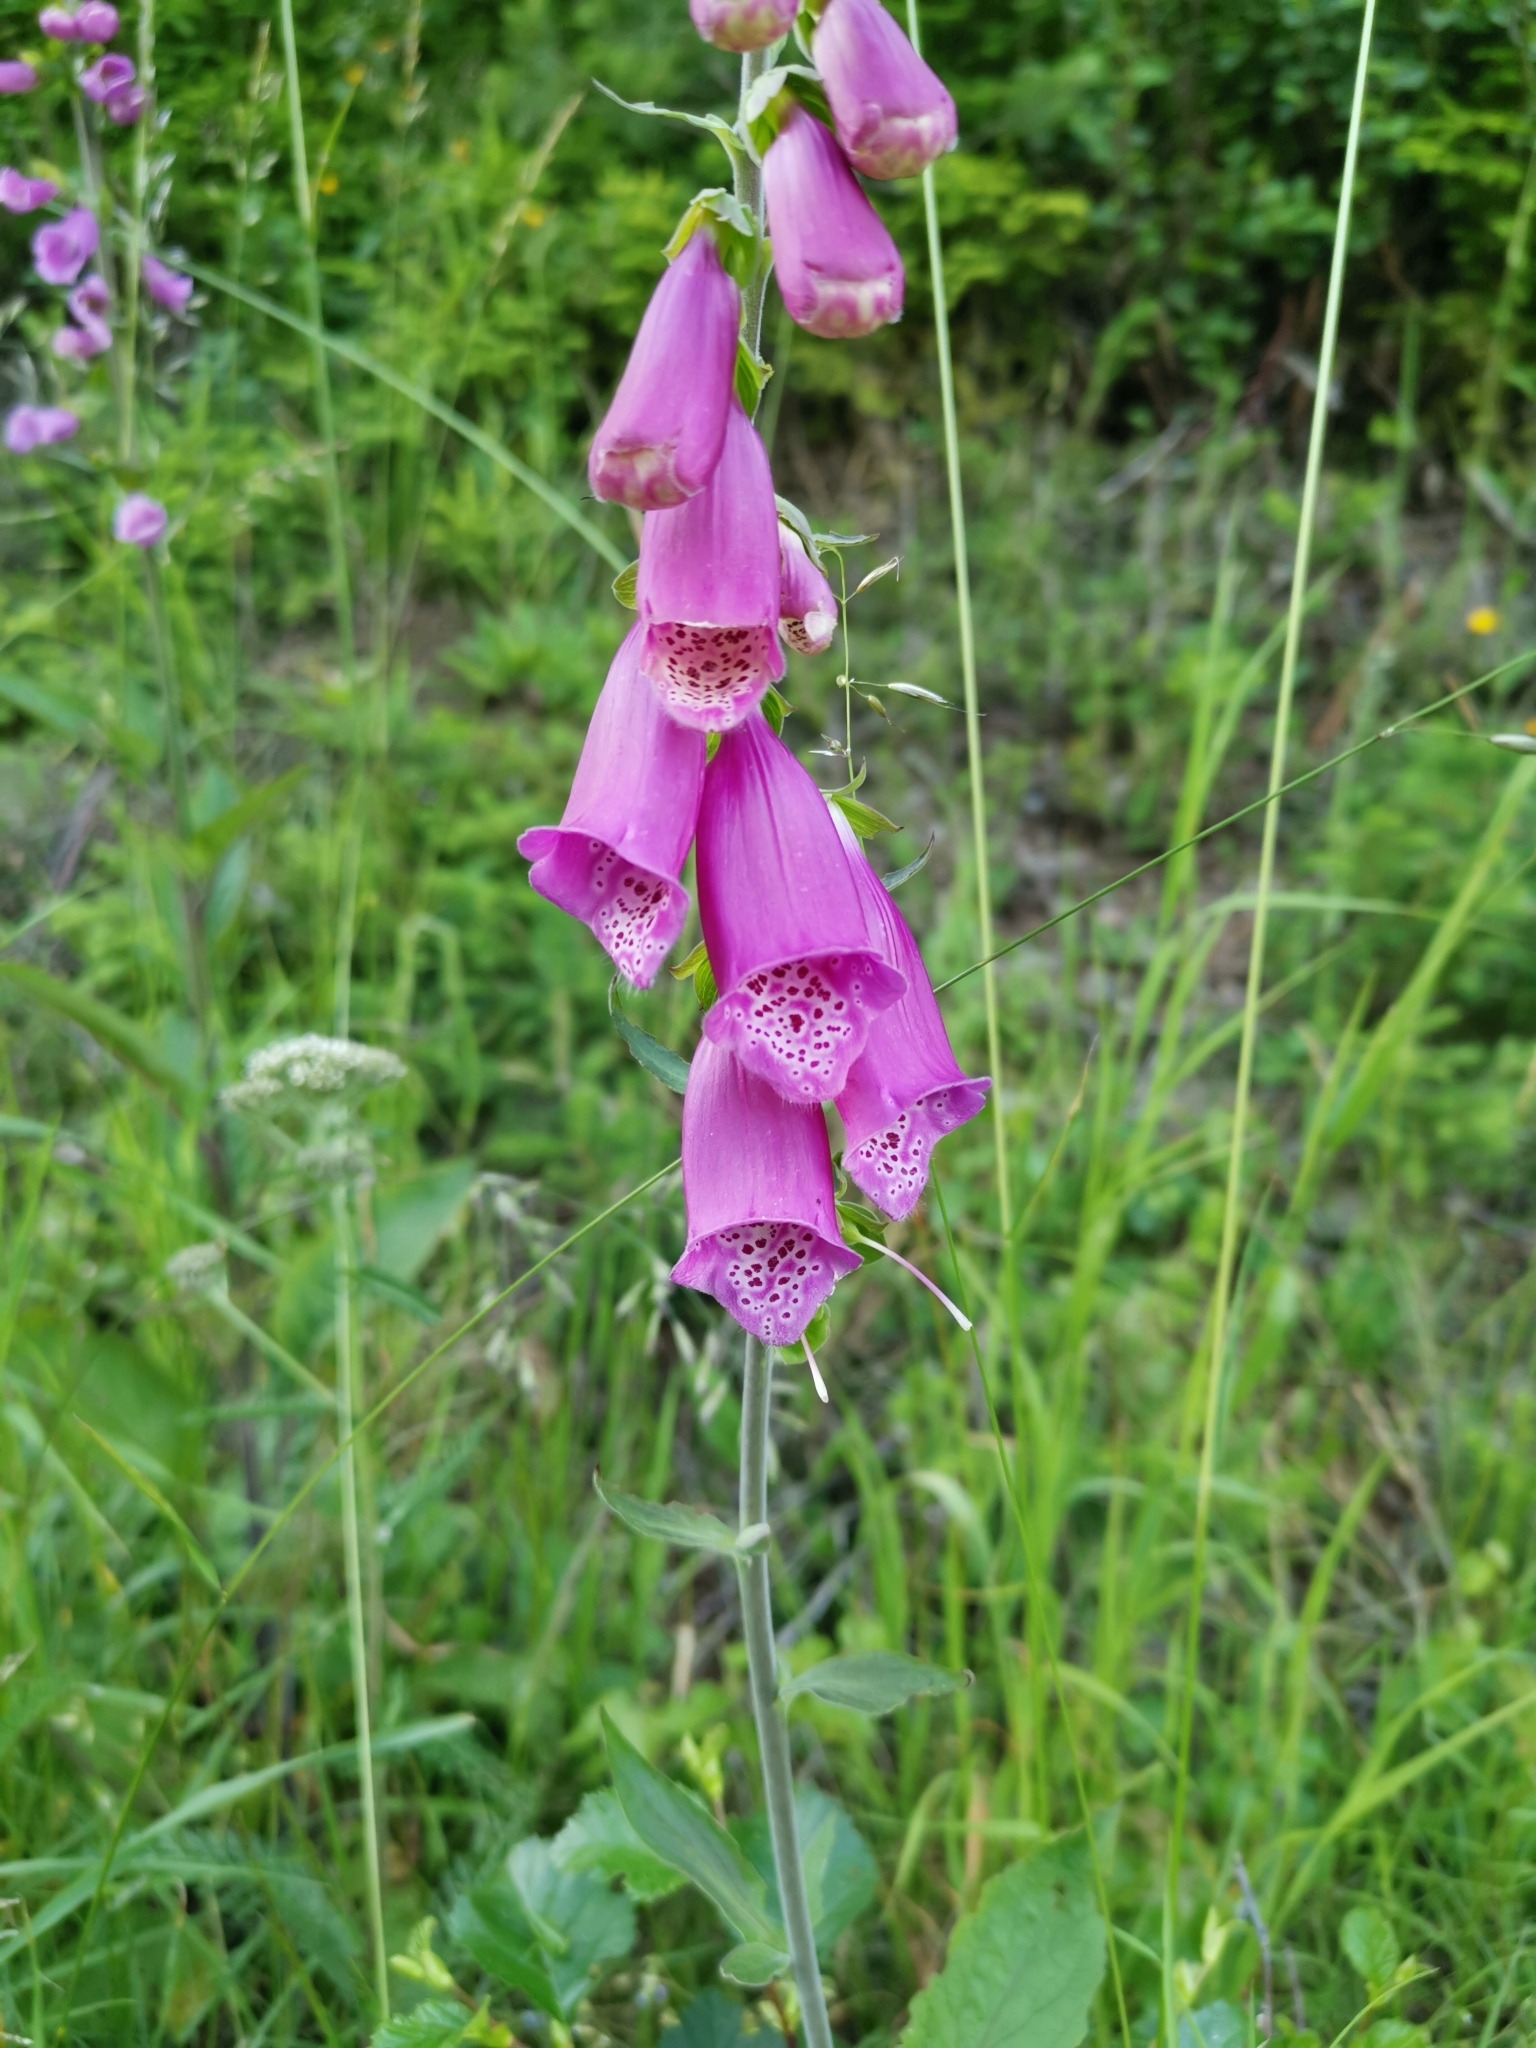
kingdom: Plantae
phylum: Tracheophyta
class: Magnoliopsida
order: Lamiales
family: Plantaginaceae
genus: Digitalis
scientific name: Digitalis purpurea
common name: Foxglove
